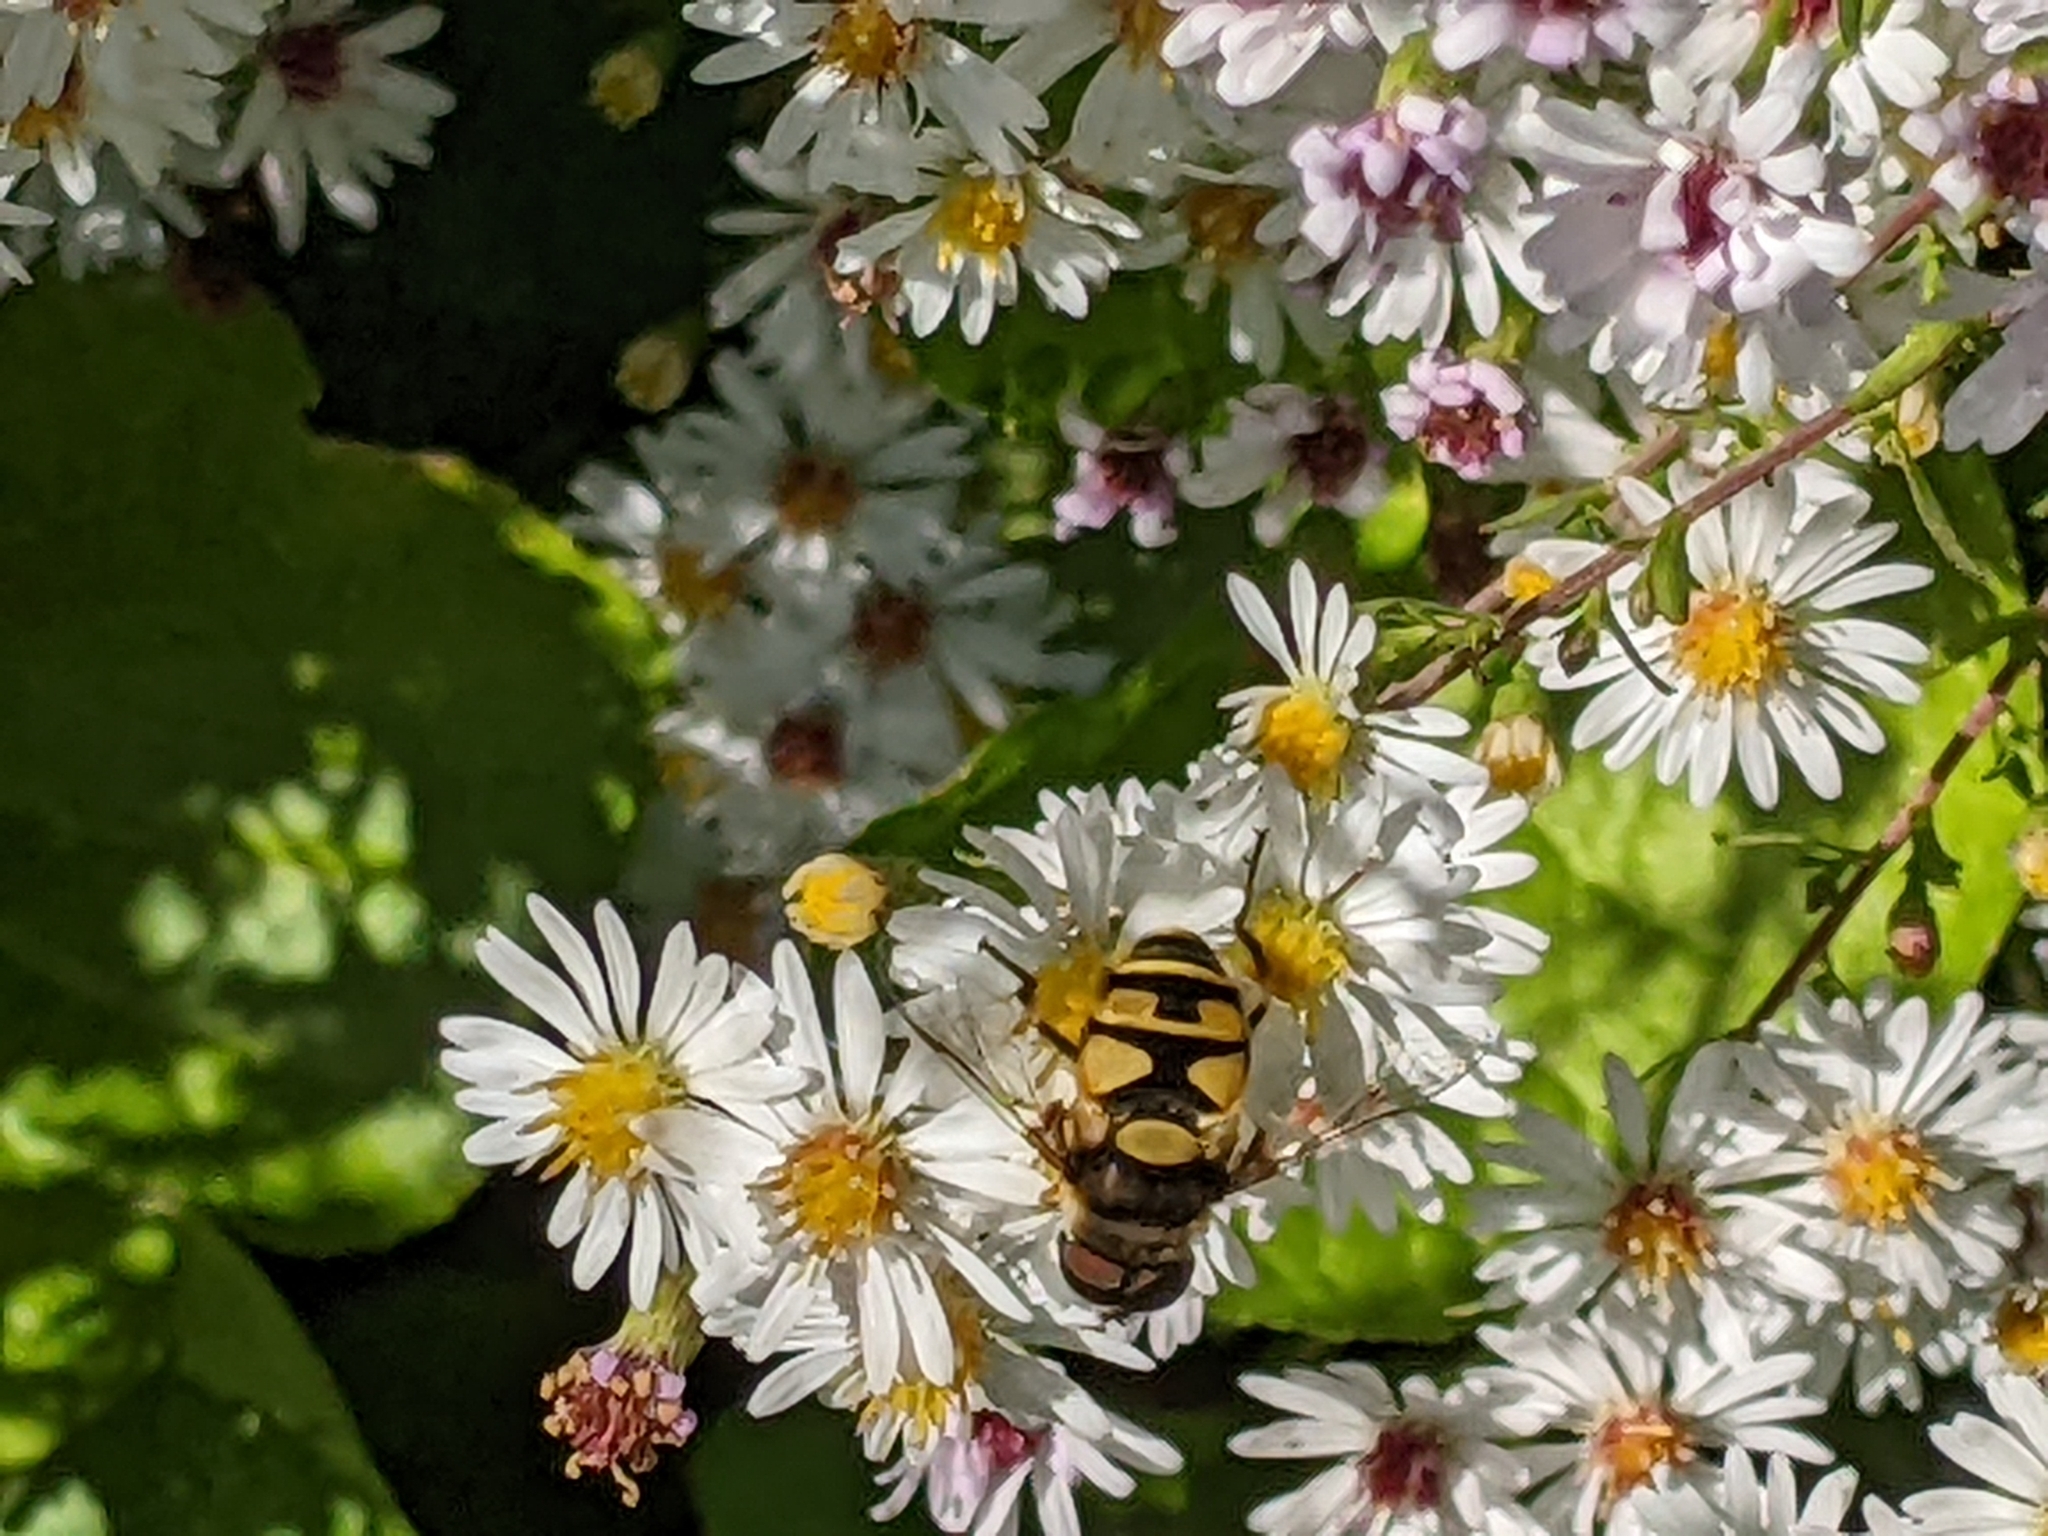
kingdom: Animalia
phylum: Arthropoda
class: Insecta
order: Diptera
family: Syrphidae
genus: Eristalis
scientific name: Eristalis transversa
